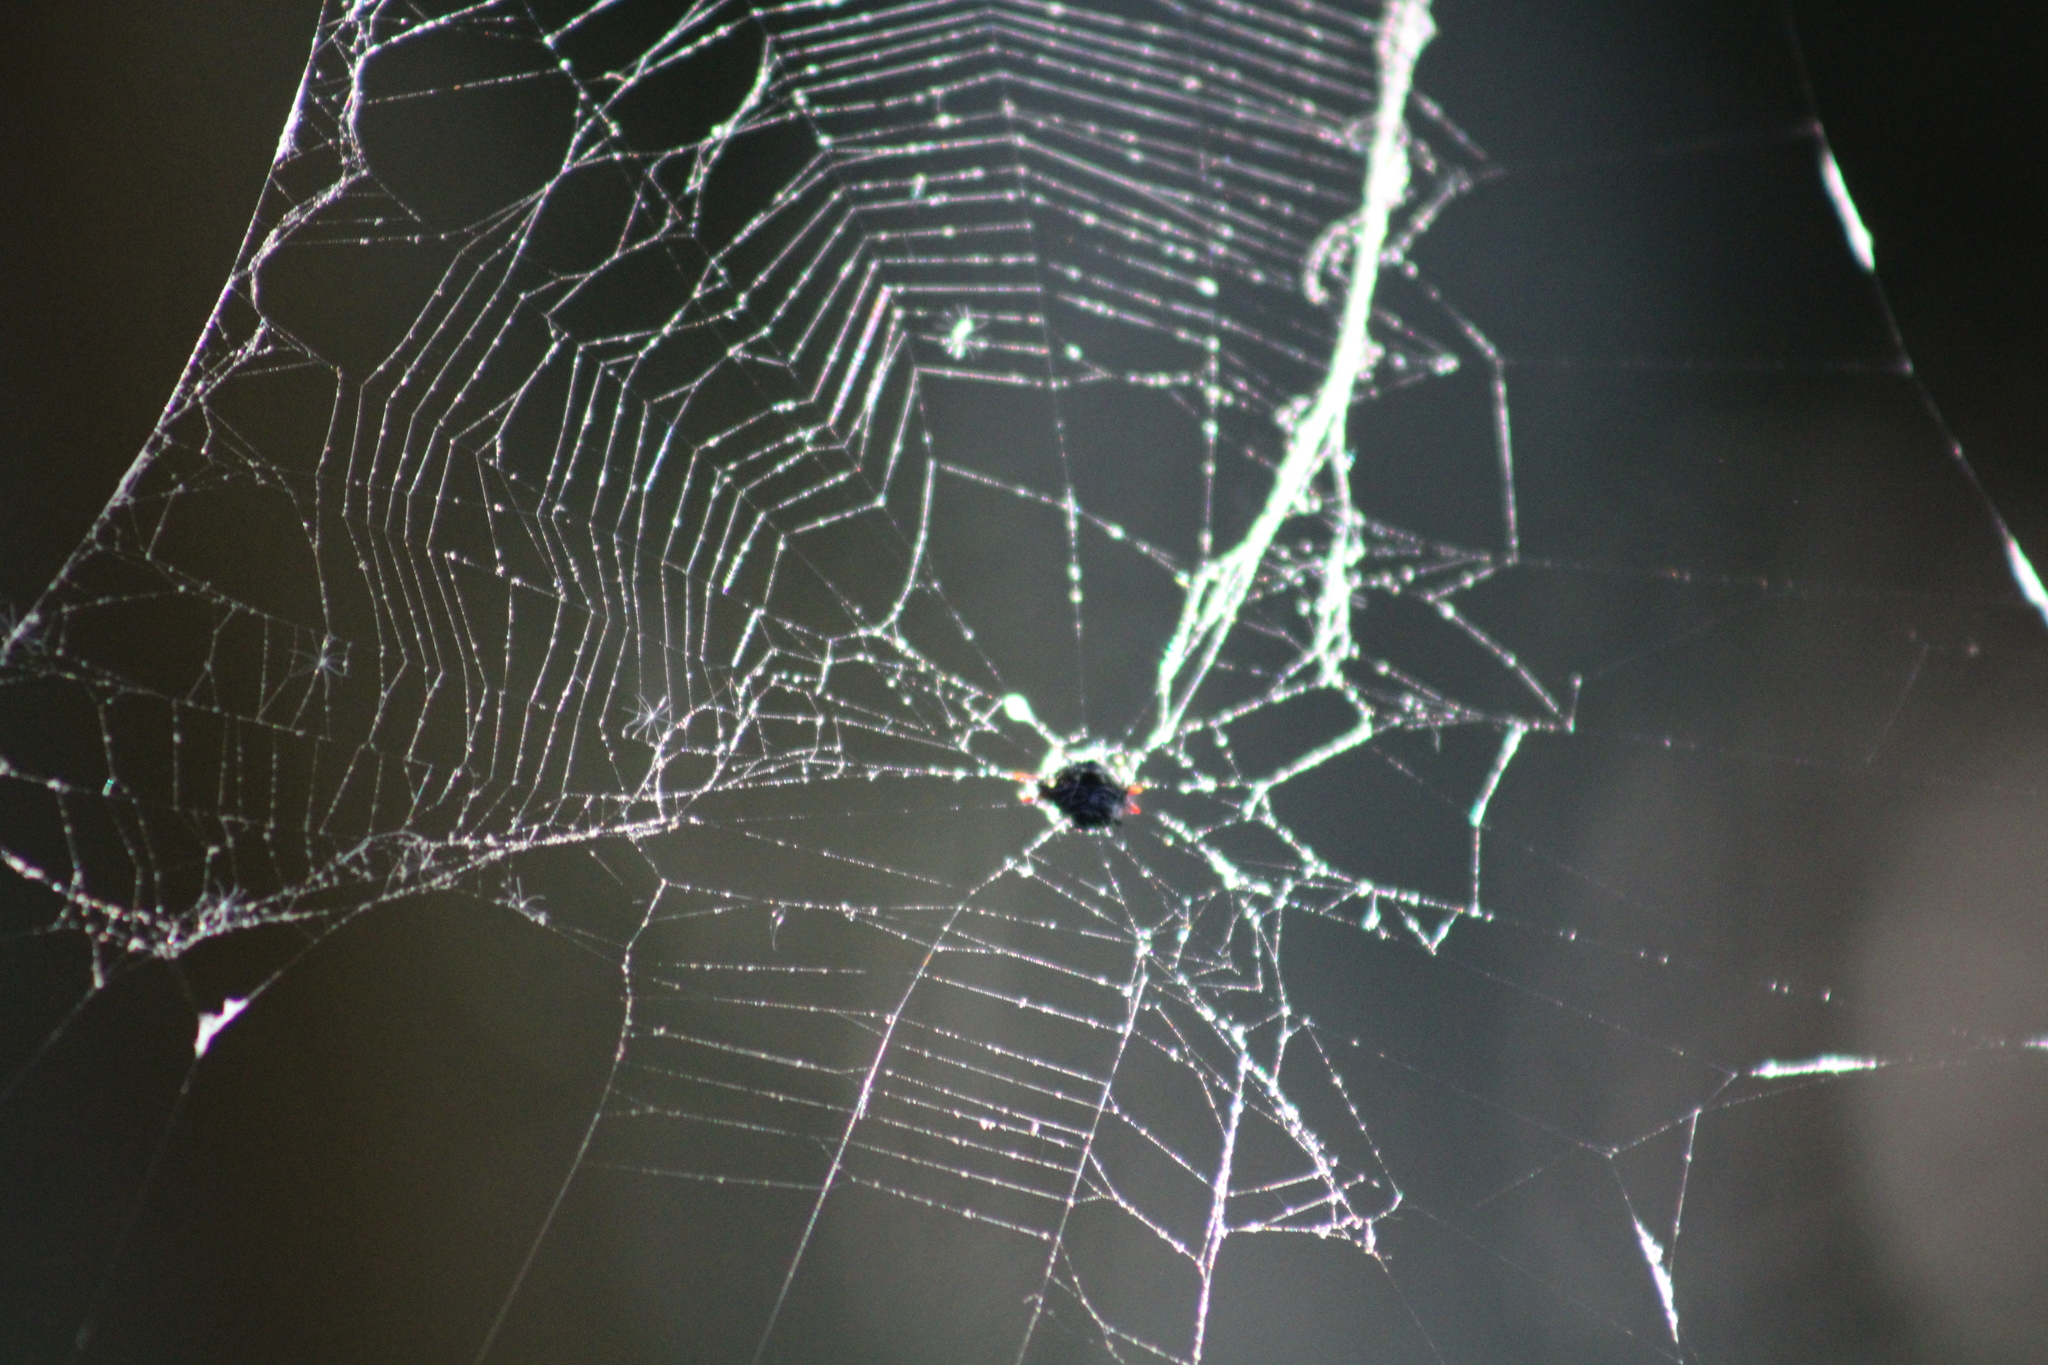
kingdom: Animalia
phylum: Arthropoda
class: Arachnida
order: Araneae
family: Araneidae
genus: Gasteracantha
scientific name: Gasteracantha cancriformis
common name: Orb weavers
